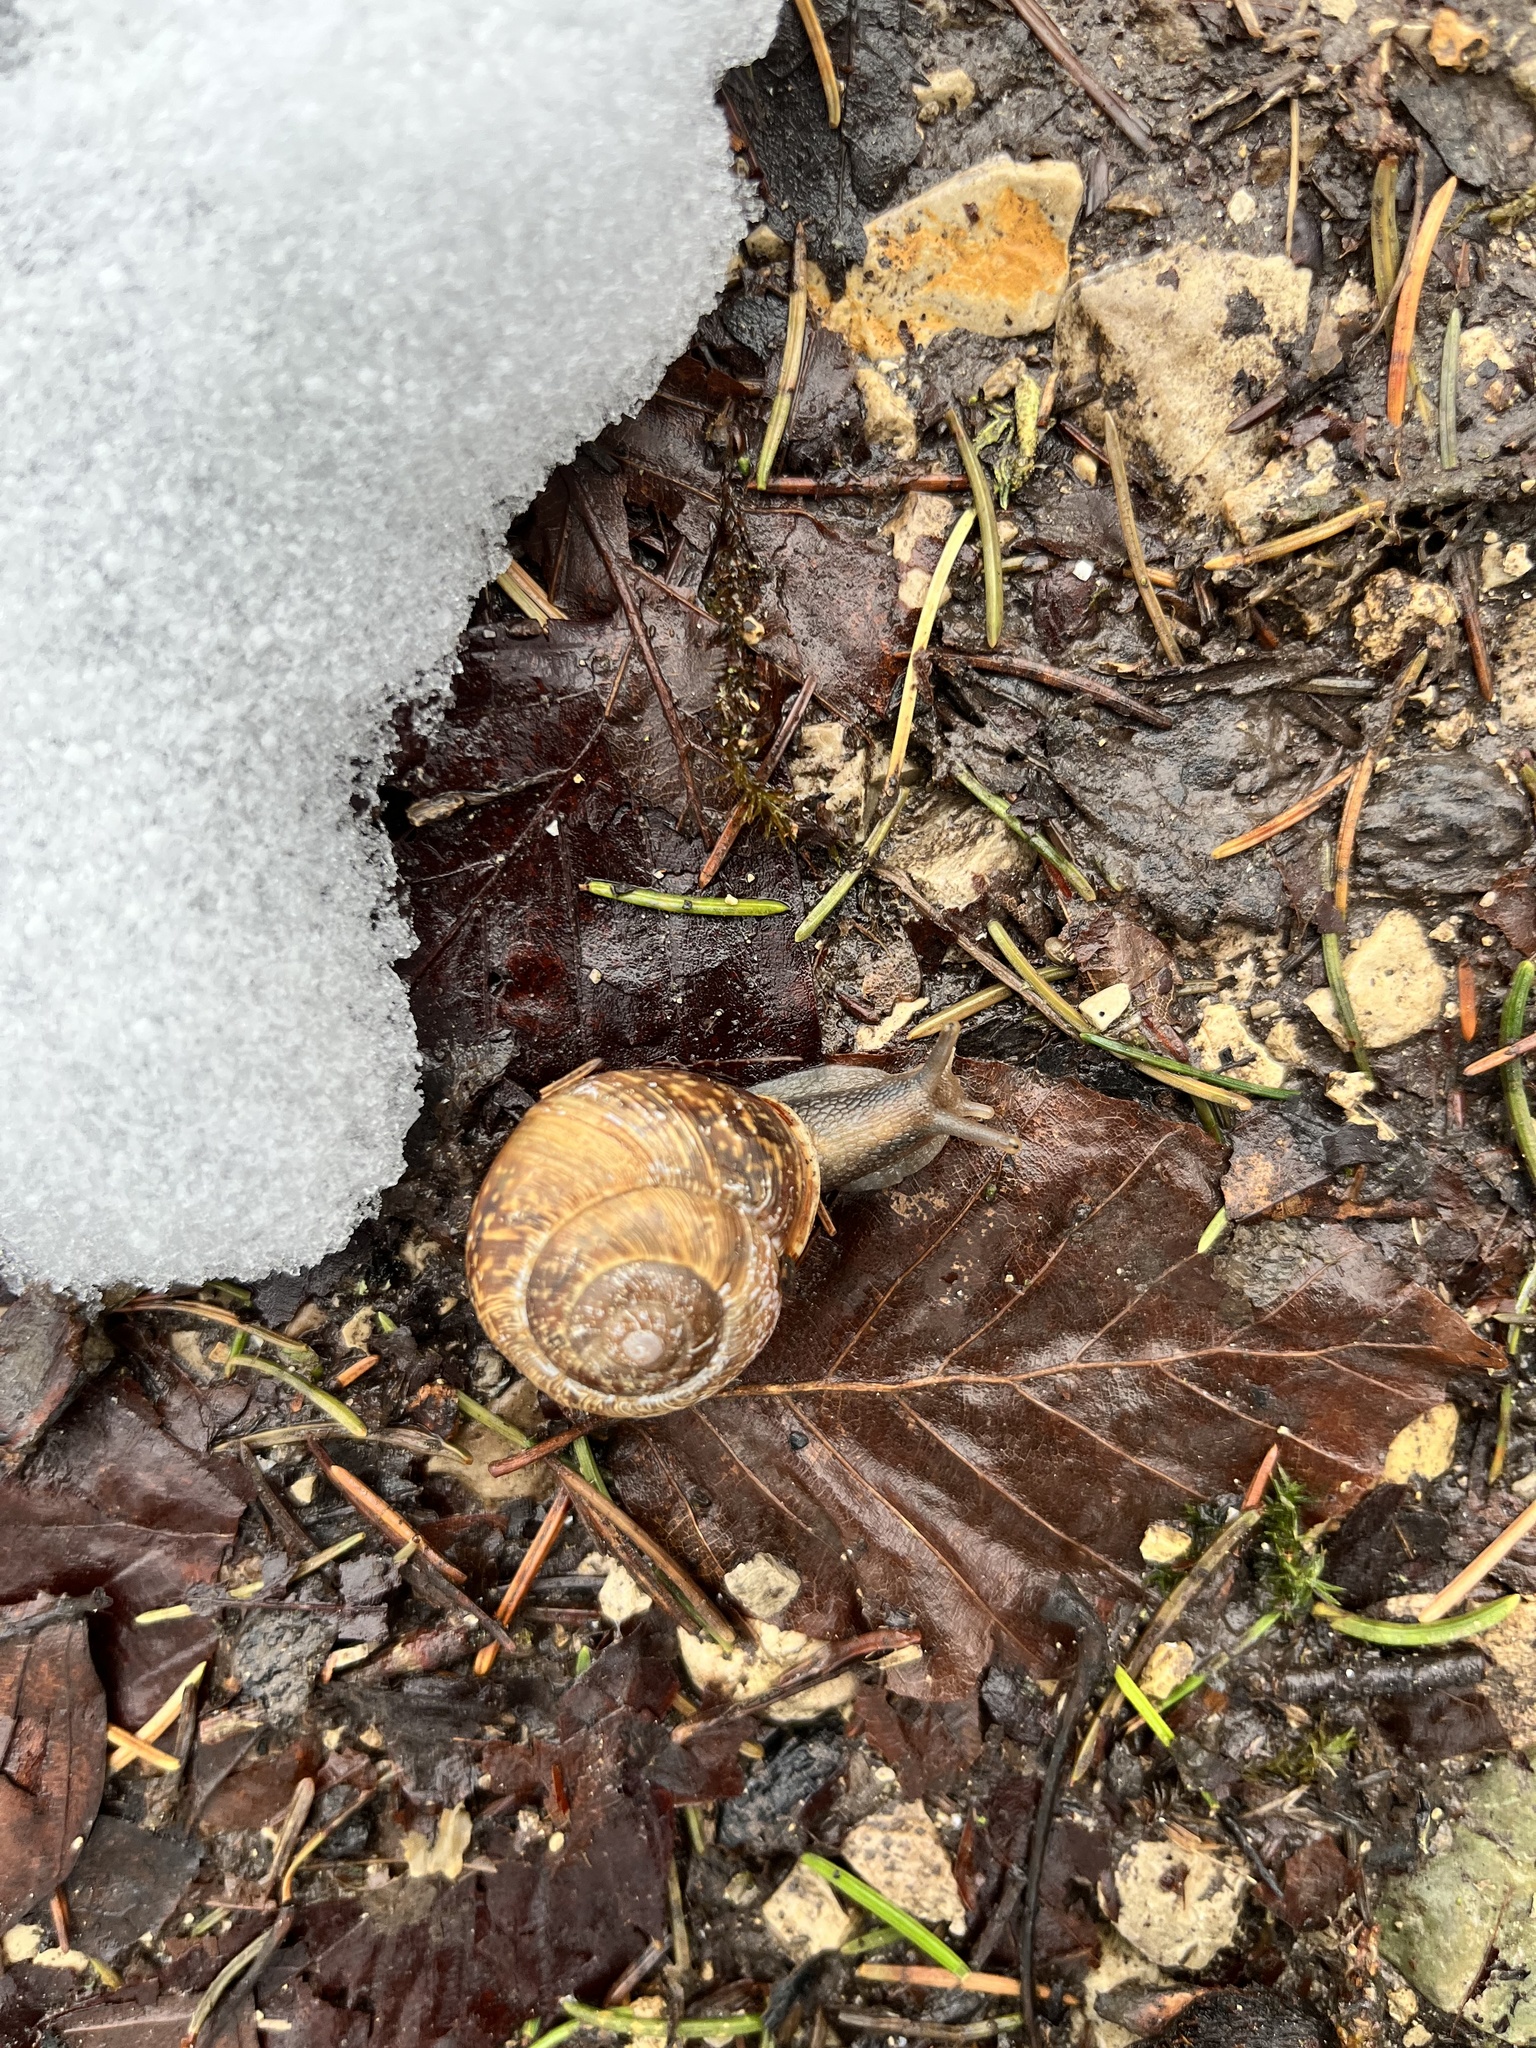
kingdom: Animalia
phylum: Mollusca
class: Gastropoda
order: Stylommatophora
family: Helicidae
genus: Arianta
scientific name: Arianta arbustorum
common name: Copse snail
